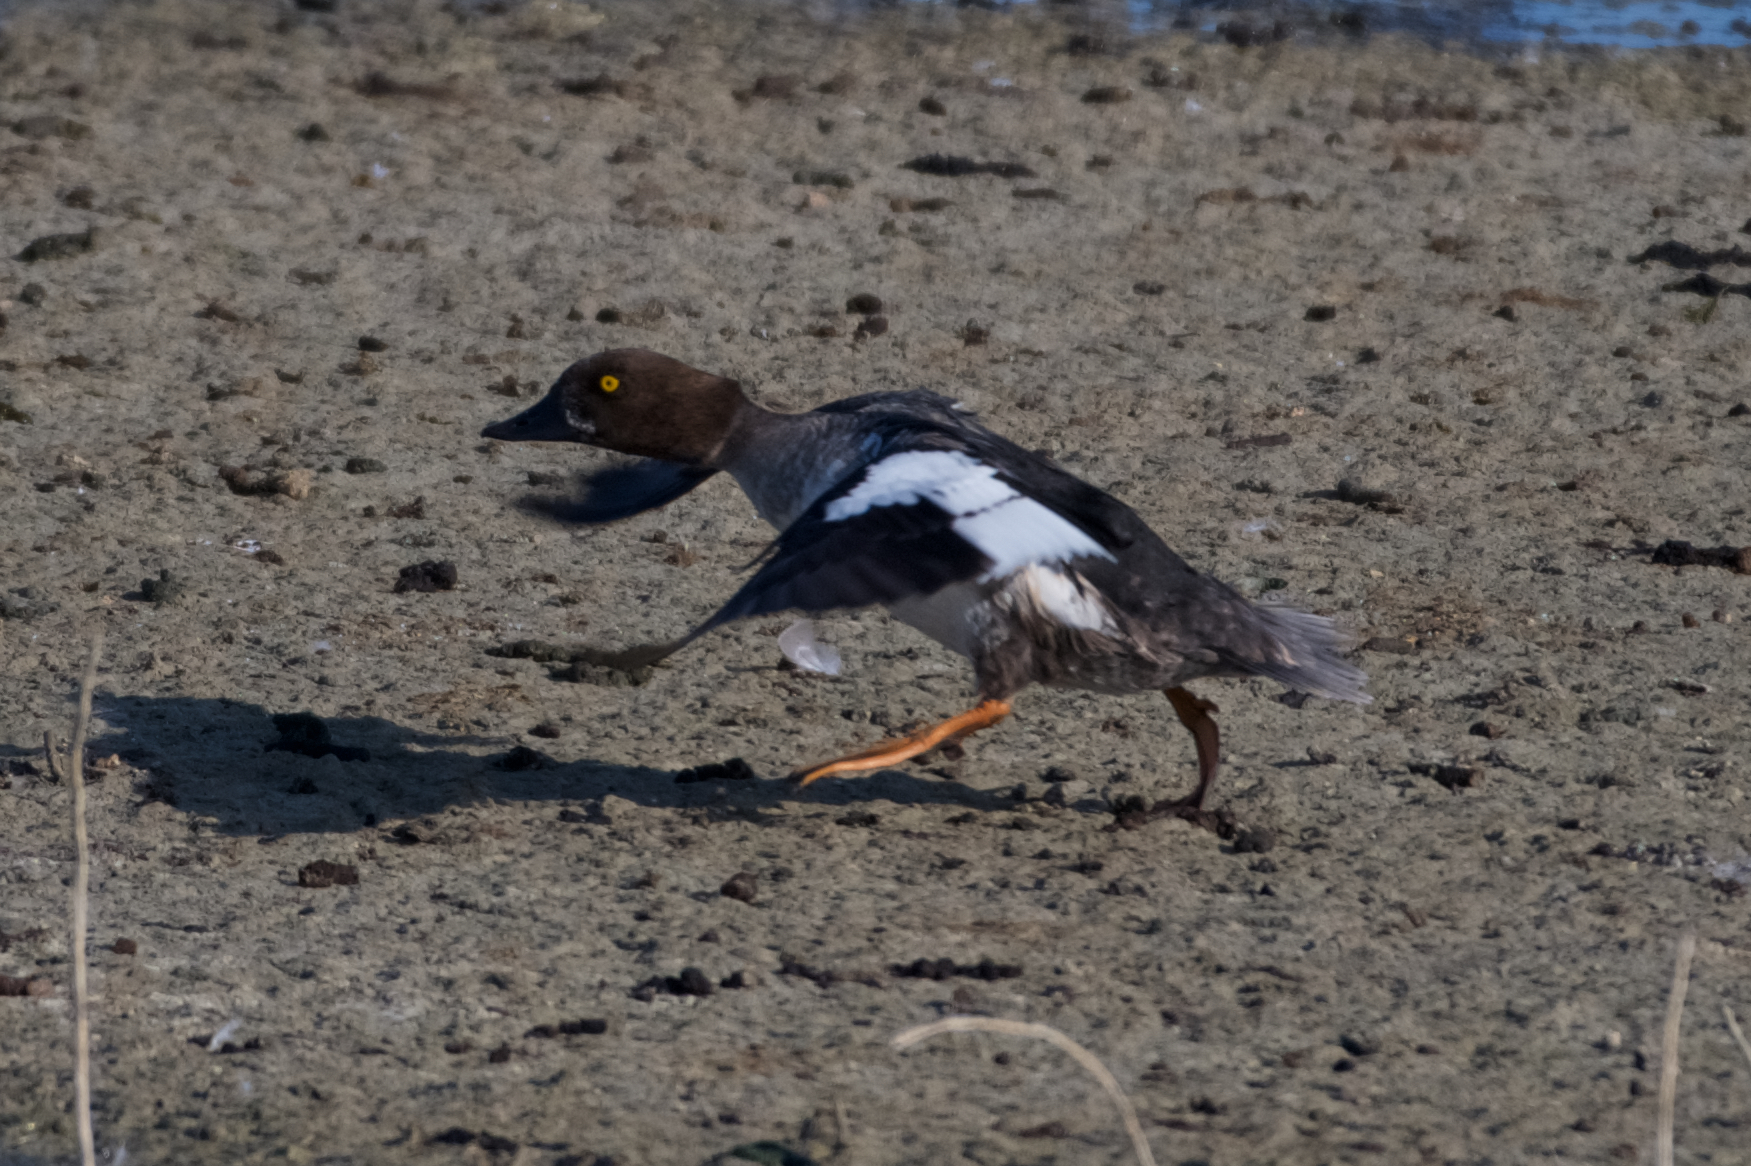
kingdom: Animalia
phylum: Chordata
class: Aves
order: Anseriformes
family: Anatidae
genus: Bucephala
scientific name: Bucephala clangula
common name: Common goldeneye
